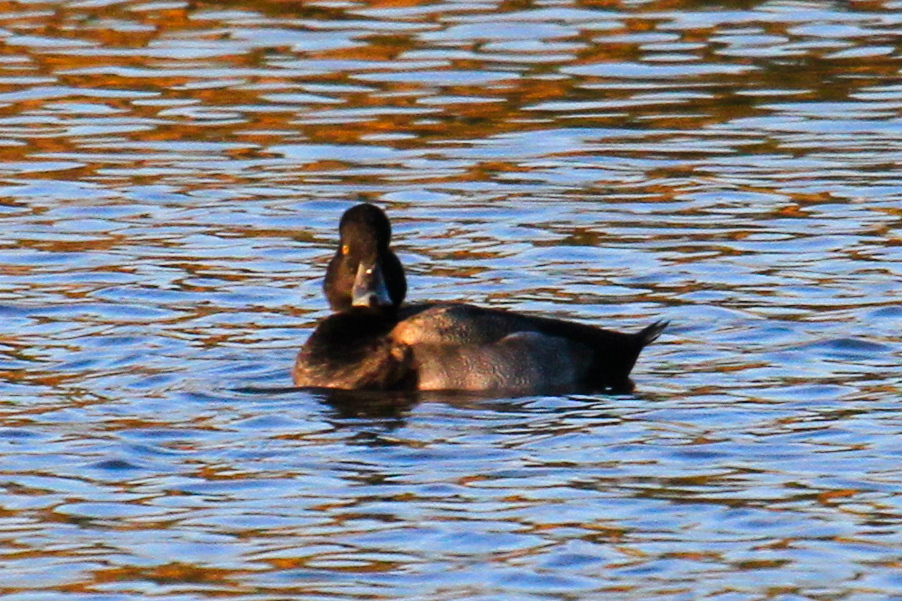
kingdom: Animalia
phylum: Chordata
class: Aves
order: Anseriformes
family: Anatidae
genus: Aythya
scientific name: Aythya collaris
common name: Ring-necked duck
